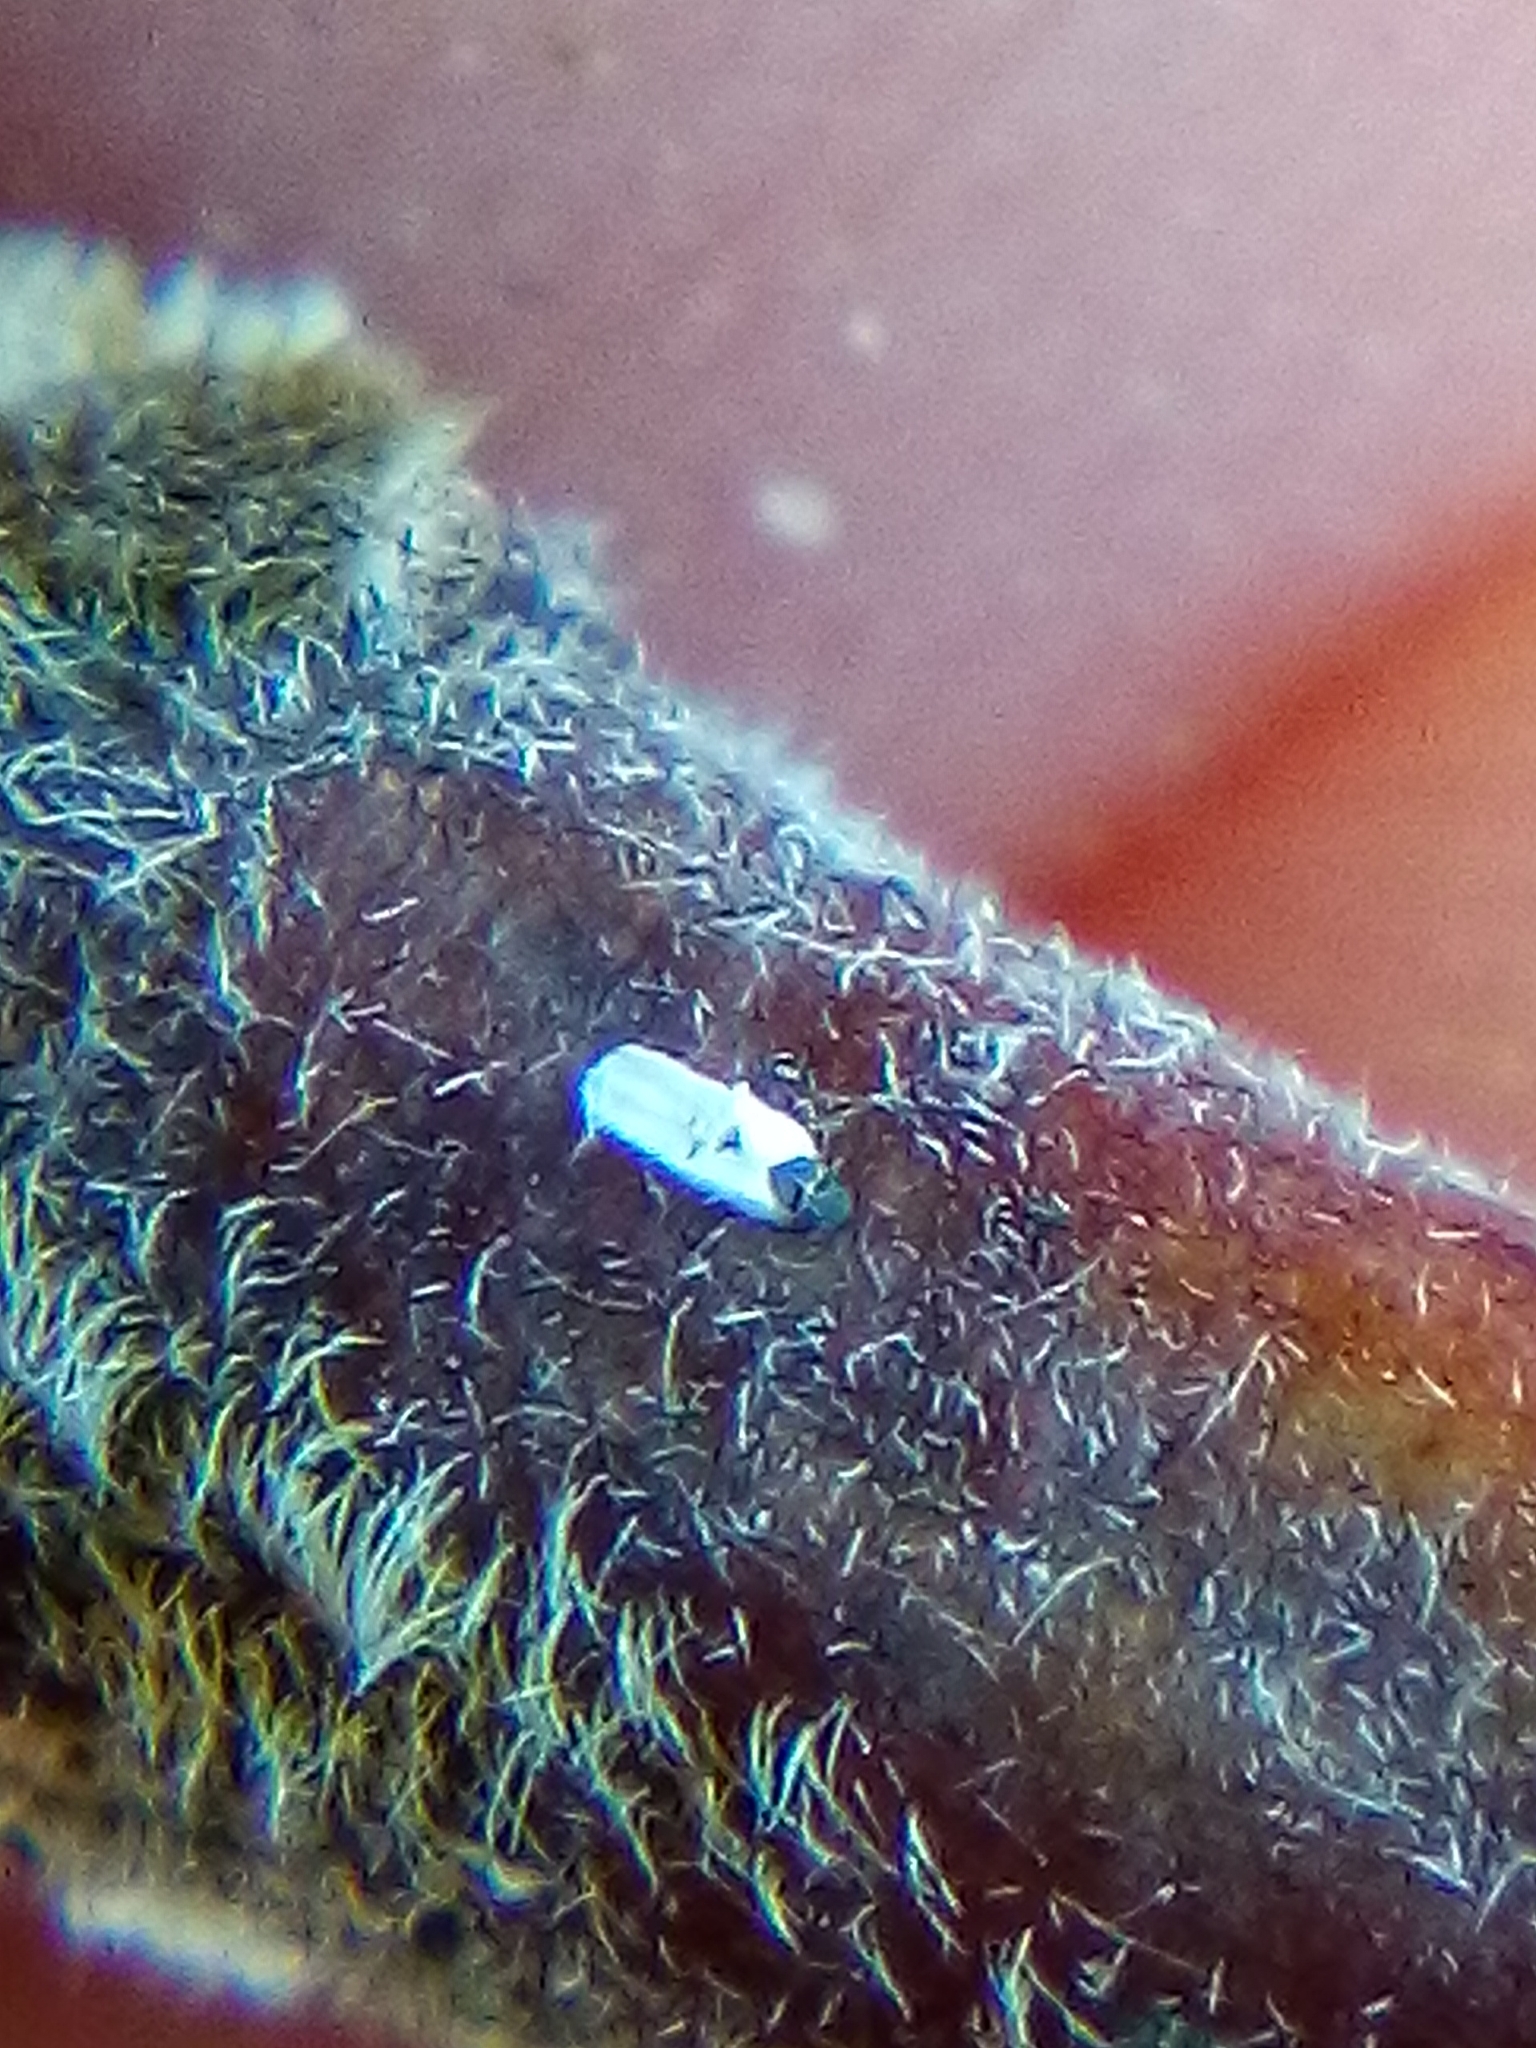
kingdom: Animalia
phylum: Arthropoda
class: Insecta
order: Hemiptera
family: Diaspididae
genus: Trullifiorinia
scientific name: Trullifiorinia acaciae
